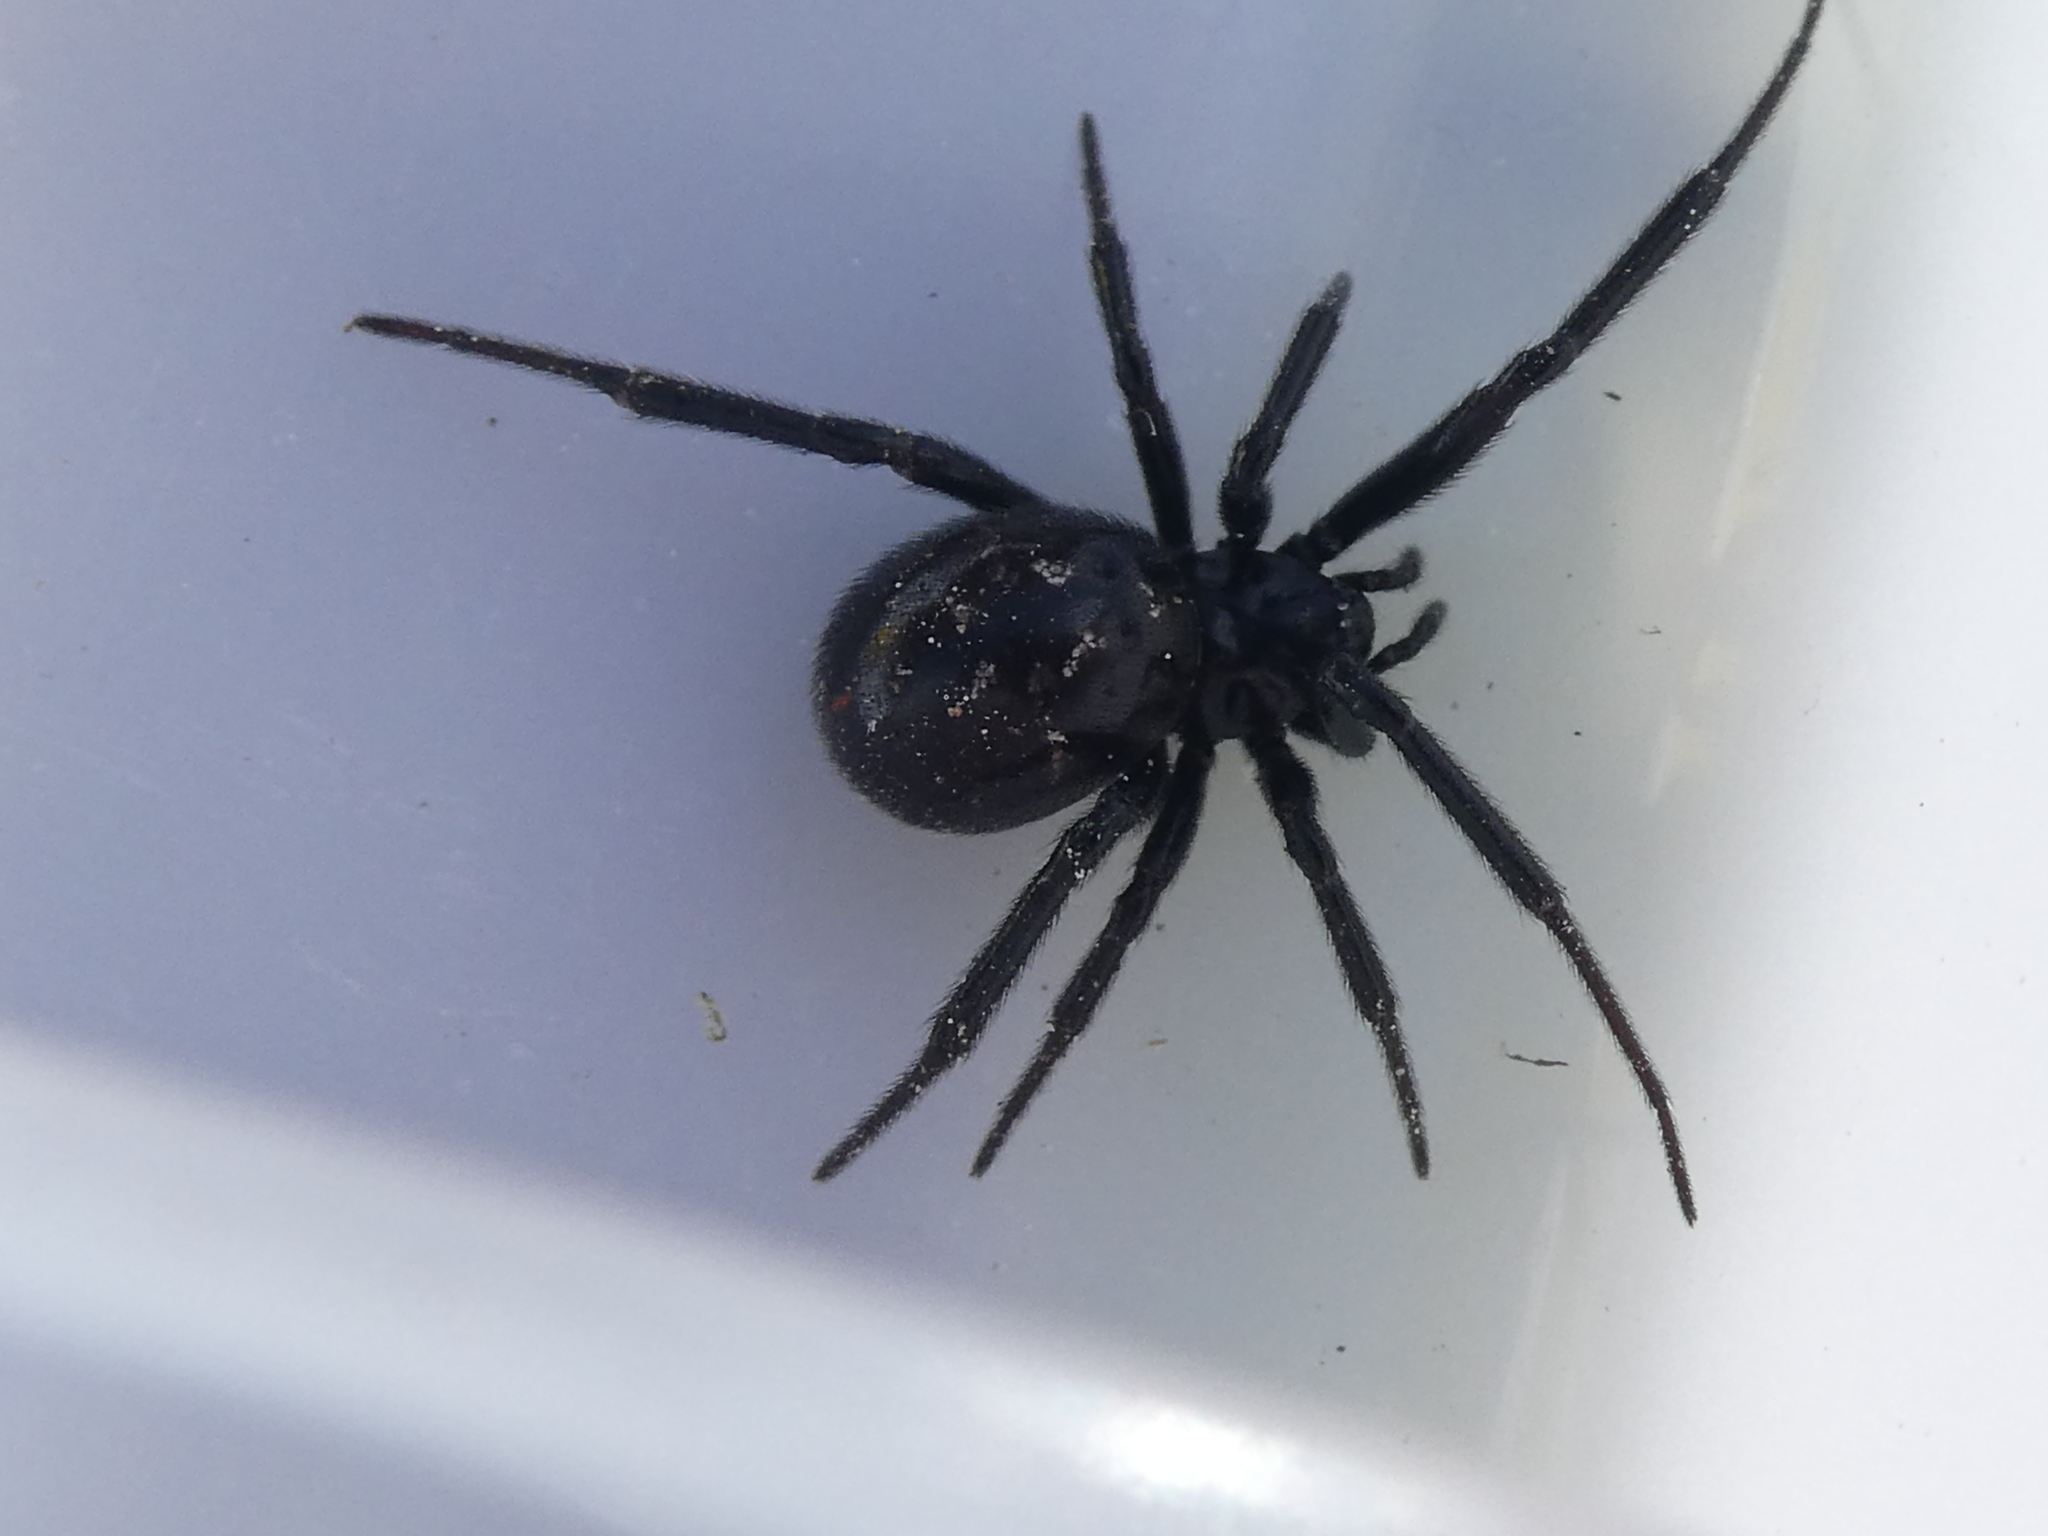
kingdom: Animalia
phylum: Arthropoda
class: Arachnida
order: Araneae
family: Theridiidae
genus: Steatoda
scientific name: Steatoda capensis
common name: Cobweb weaver
